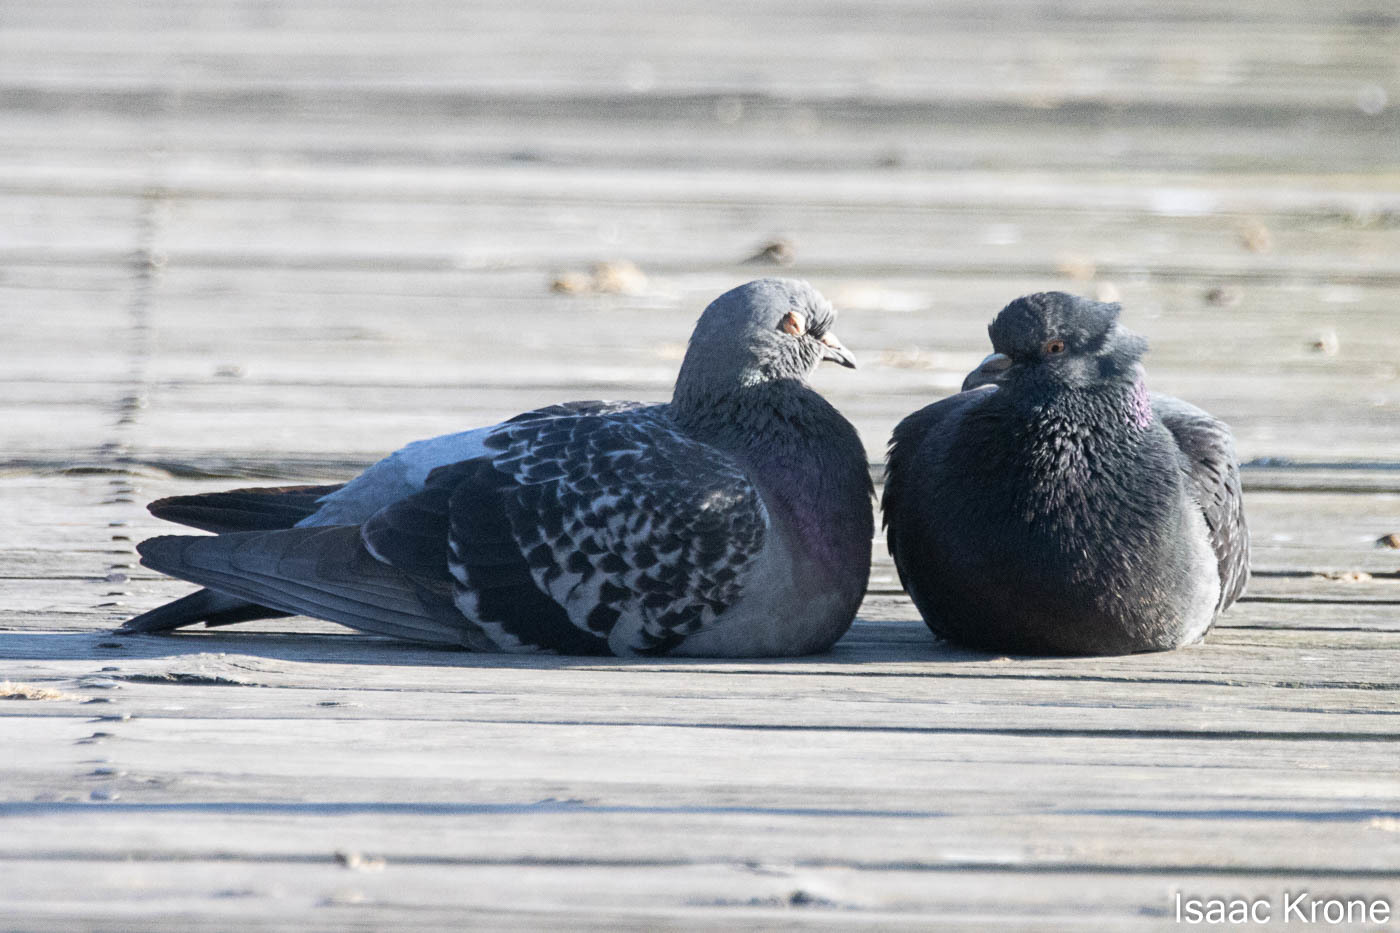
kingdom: Animalia
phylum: Chordata
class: Aves
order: Columbiformes
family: Columbidae
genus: Columba
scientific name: Columba livia
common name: Rock pigeon
